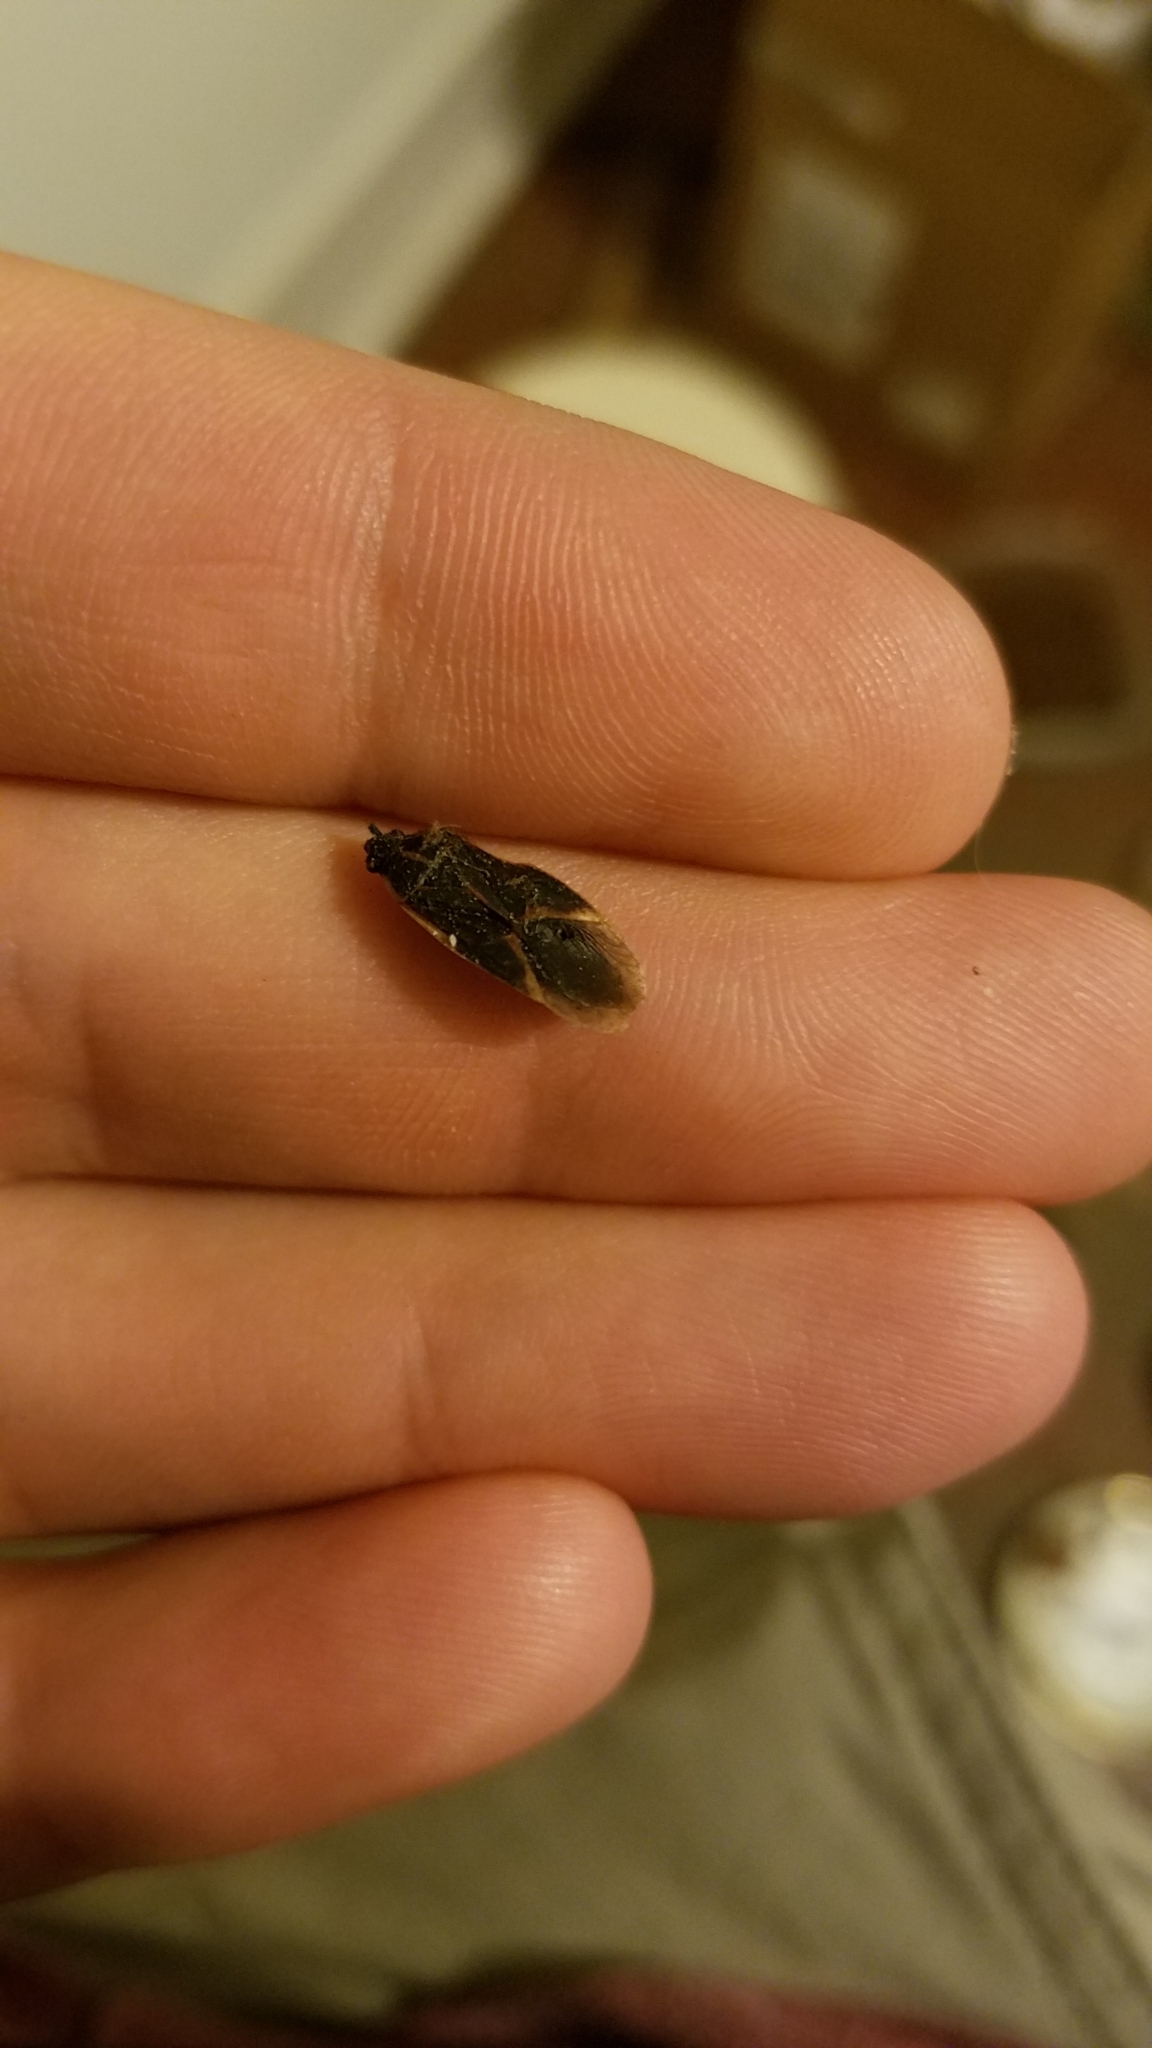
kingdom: Animalia
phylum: Arthropoda
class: Insecta
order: Hemiptera
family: Rhopalidae
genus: Boisea
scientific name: Boisea trivittata
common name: Boxelder bug
